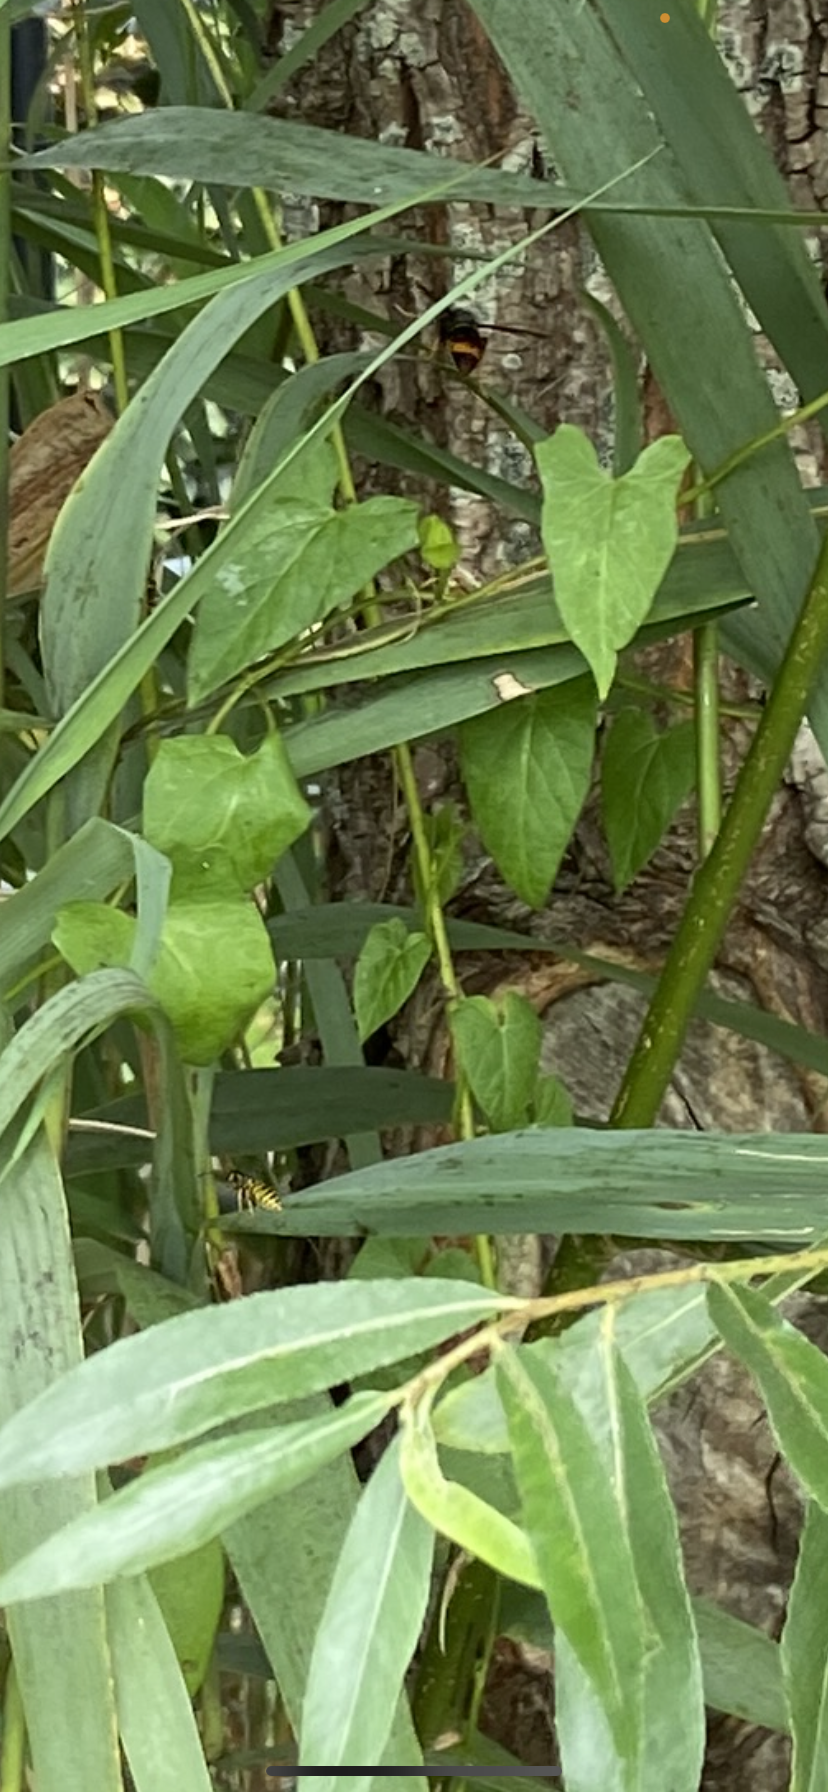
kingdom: Animalia
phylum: Arthropoda
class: Insecta
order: Hymenoptera
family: Vespidae
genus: Vespa
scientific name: Vespa velutina
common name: Asian hornet
